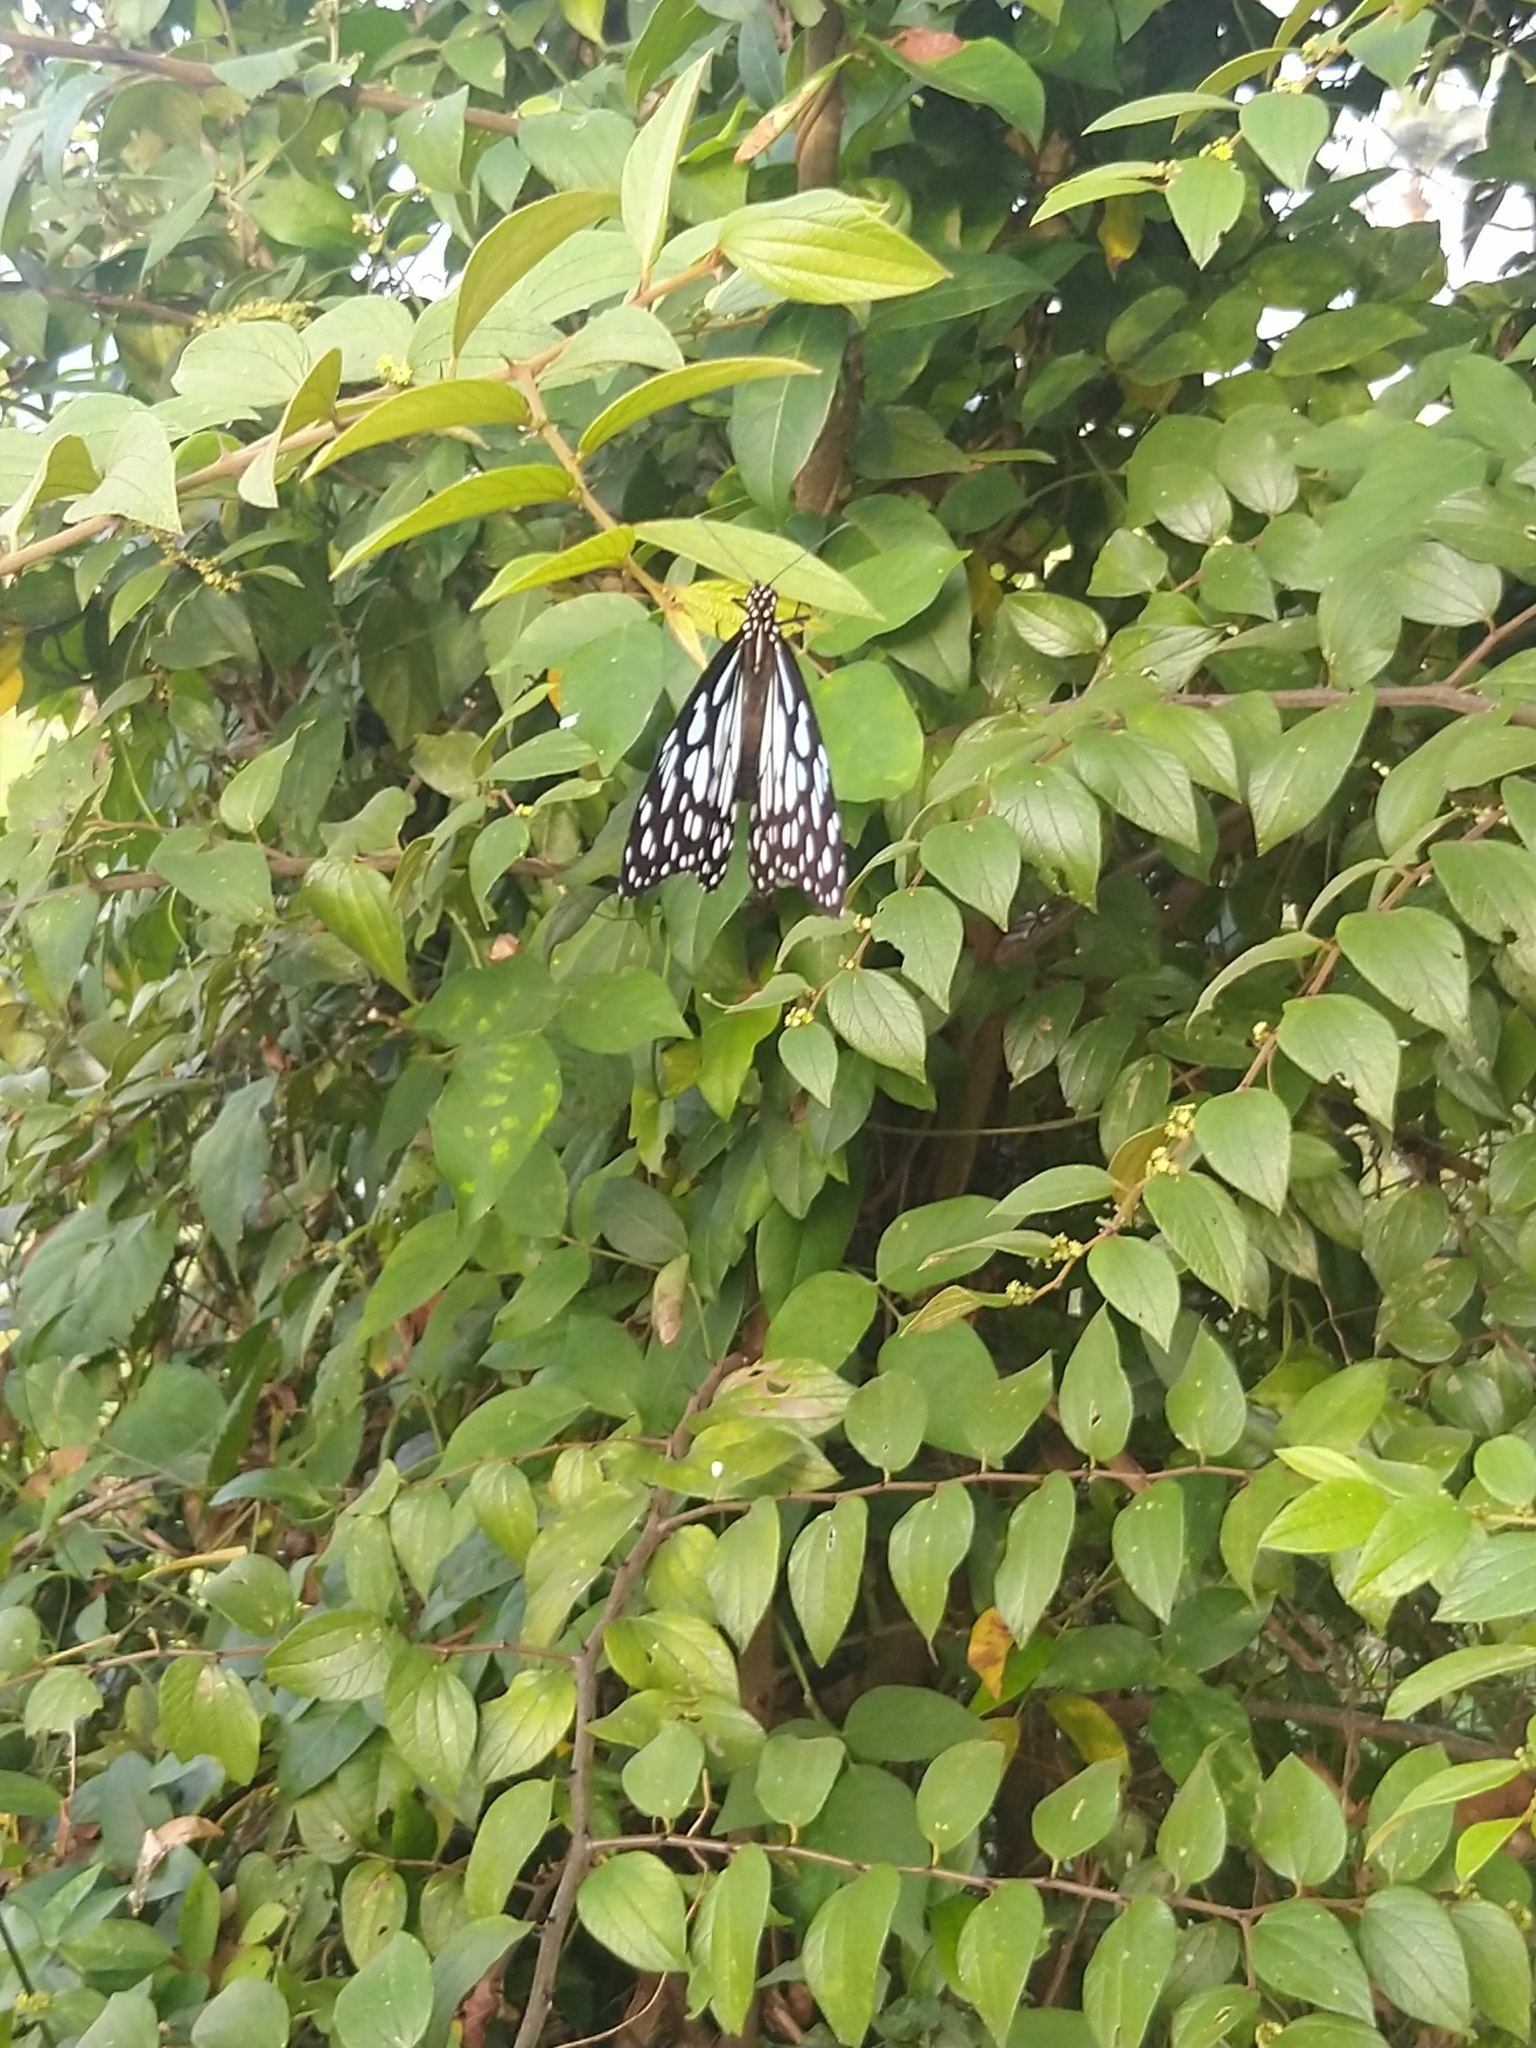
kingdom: Animalia
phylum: Arthropoda
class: Insecta
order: Lepidoptera
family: Nymphalidae
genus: Tirumala
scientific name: Tirumala limniace
